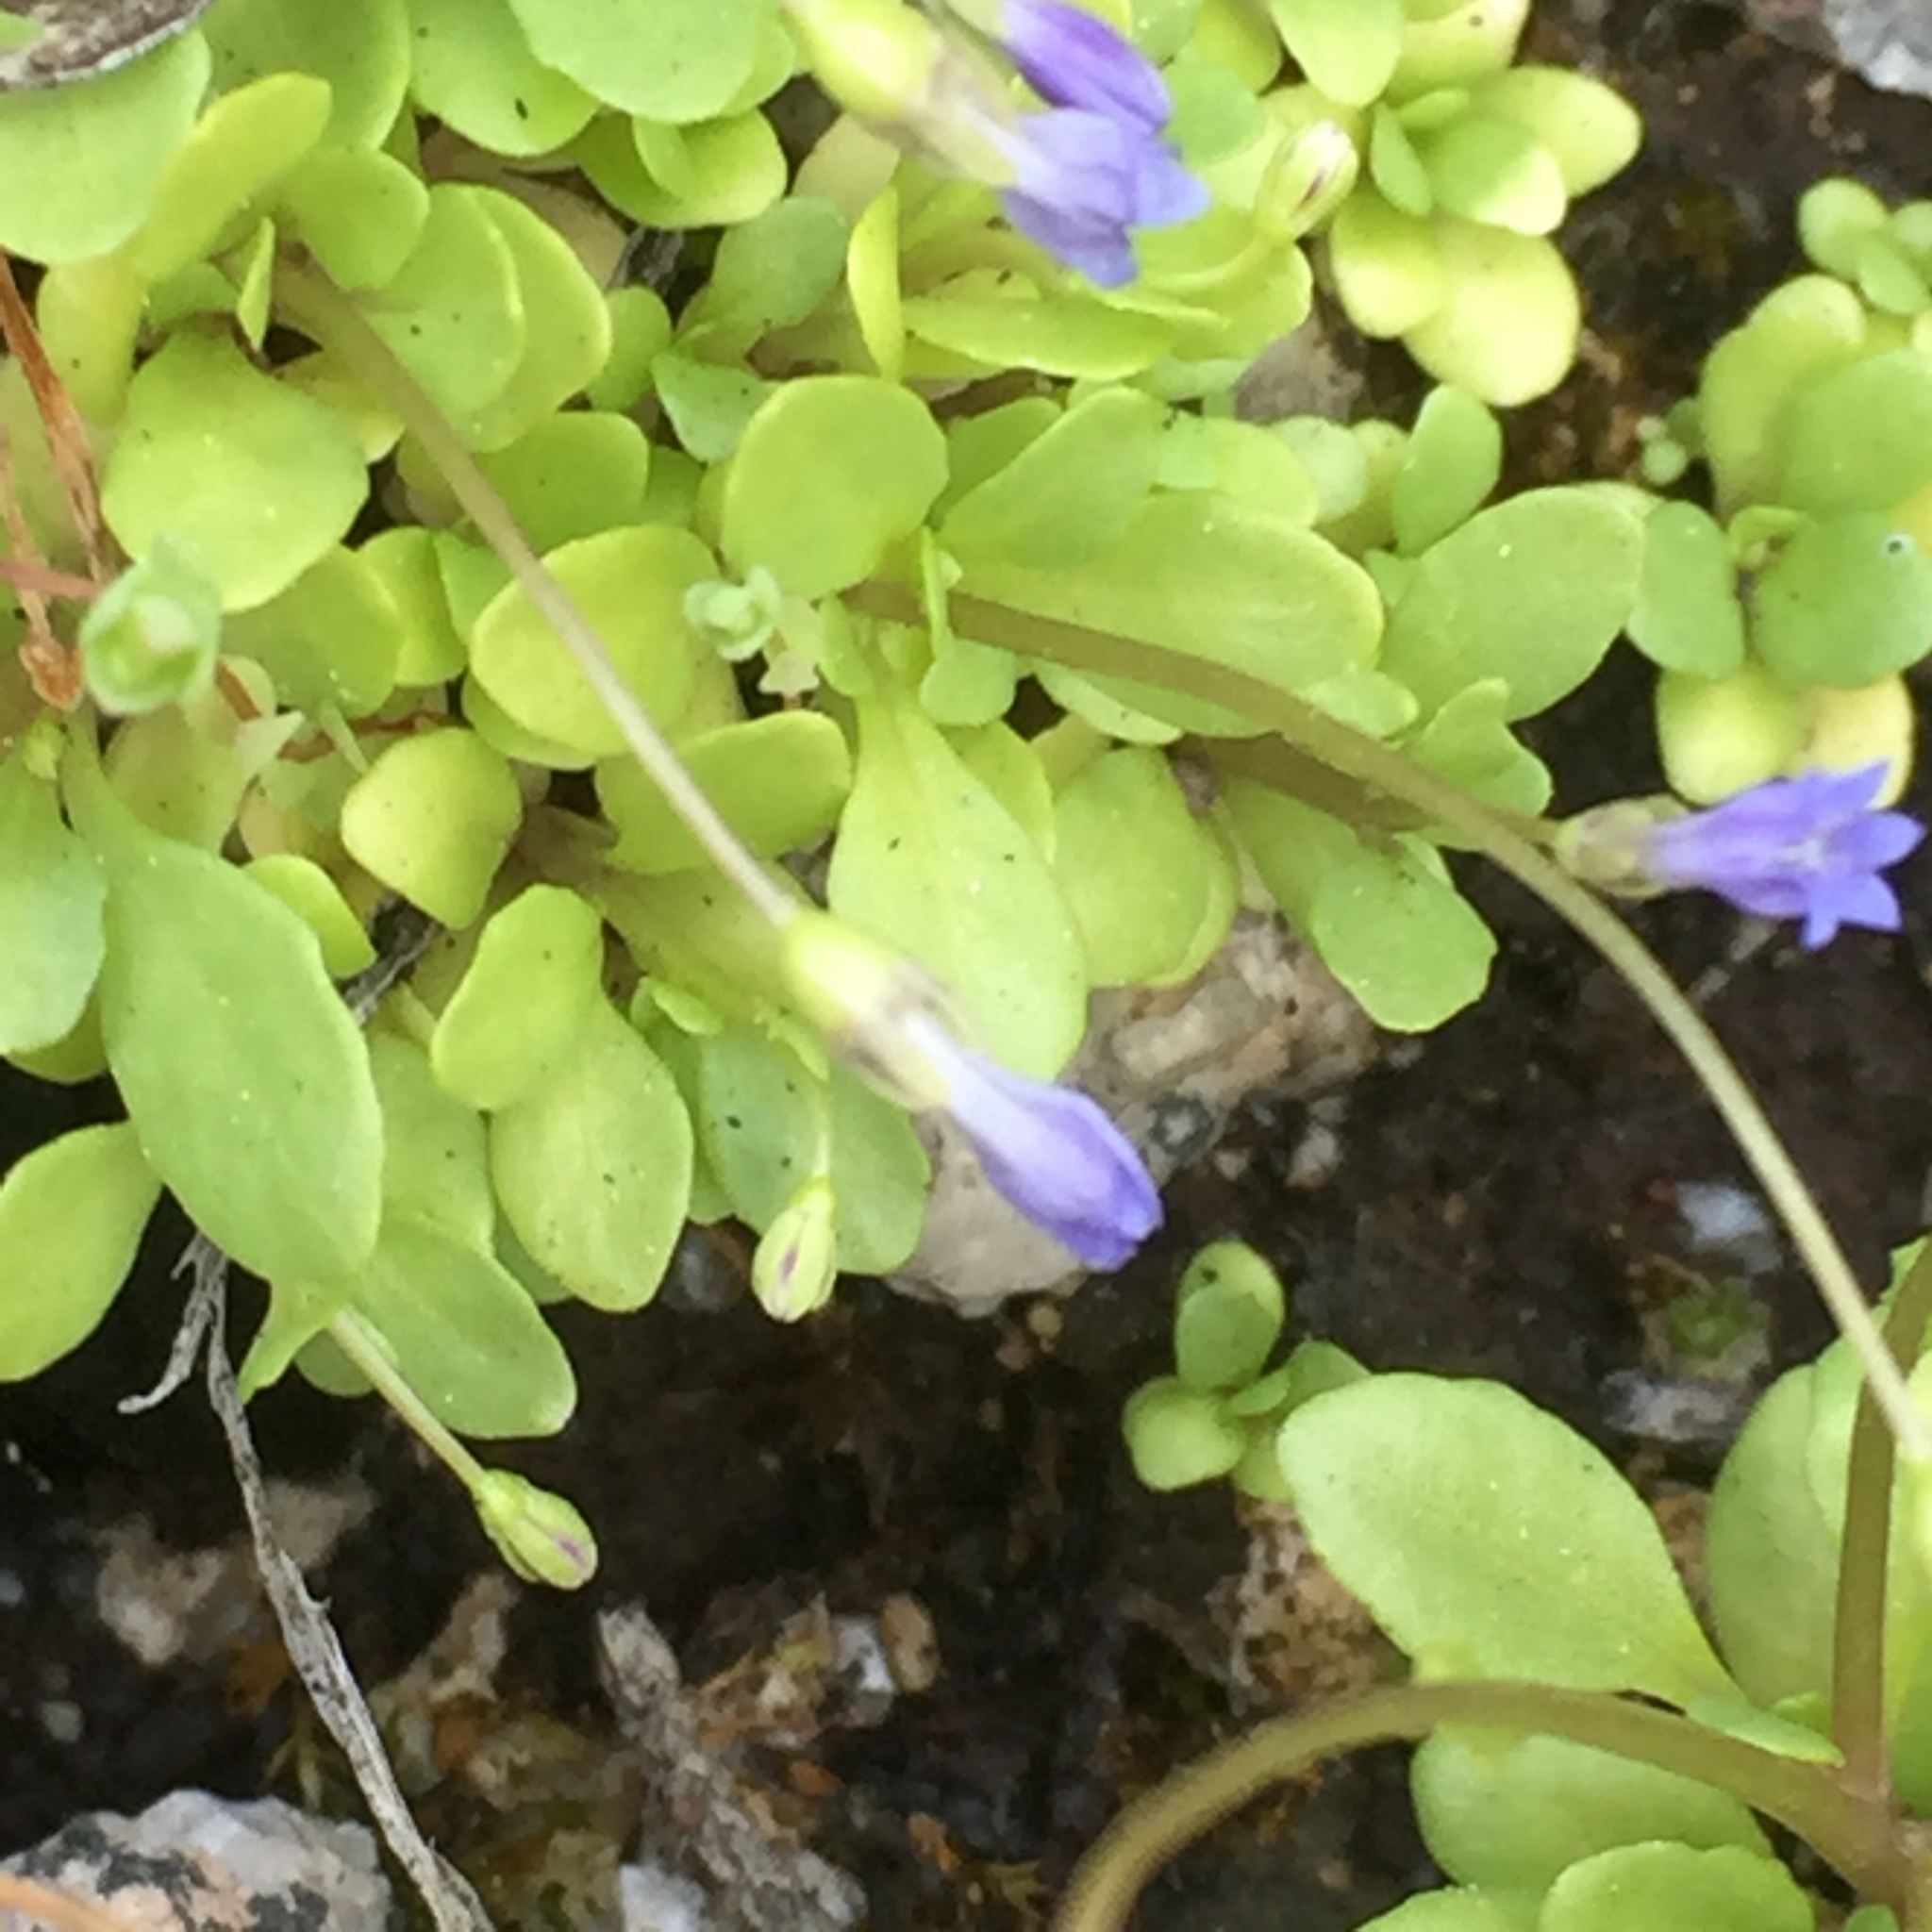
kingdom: Plantae
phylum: Tracheophyta
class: Magnoliopsida
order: Asterales
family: Campanulaceae
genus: Solenopsis
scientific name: Solenopsis laurentia
